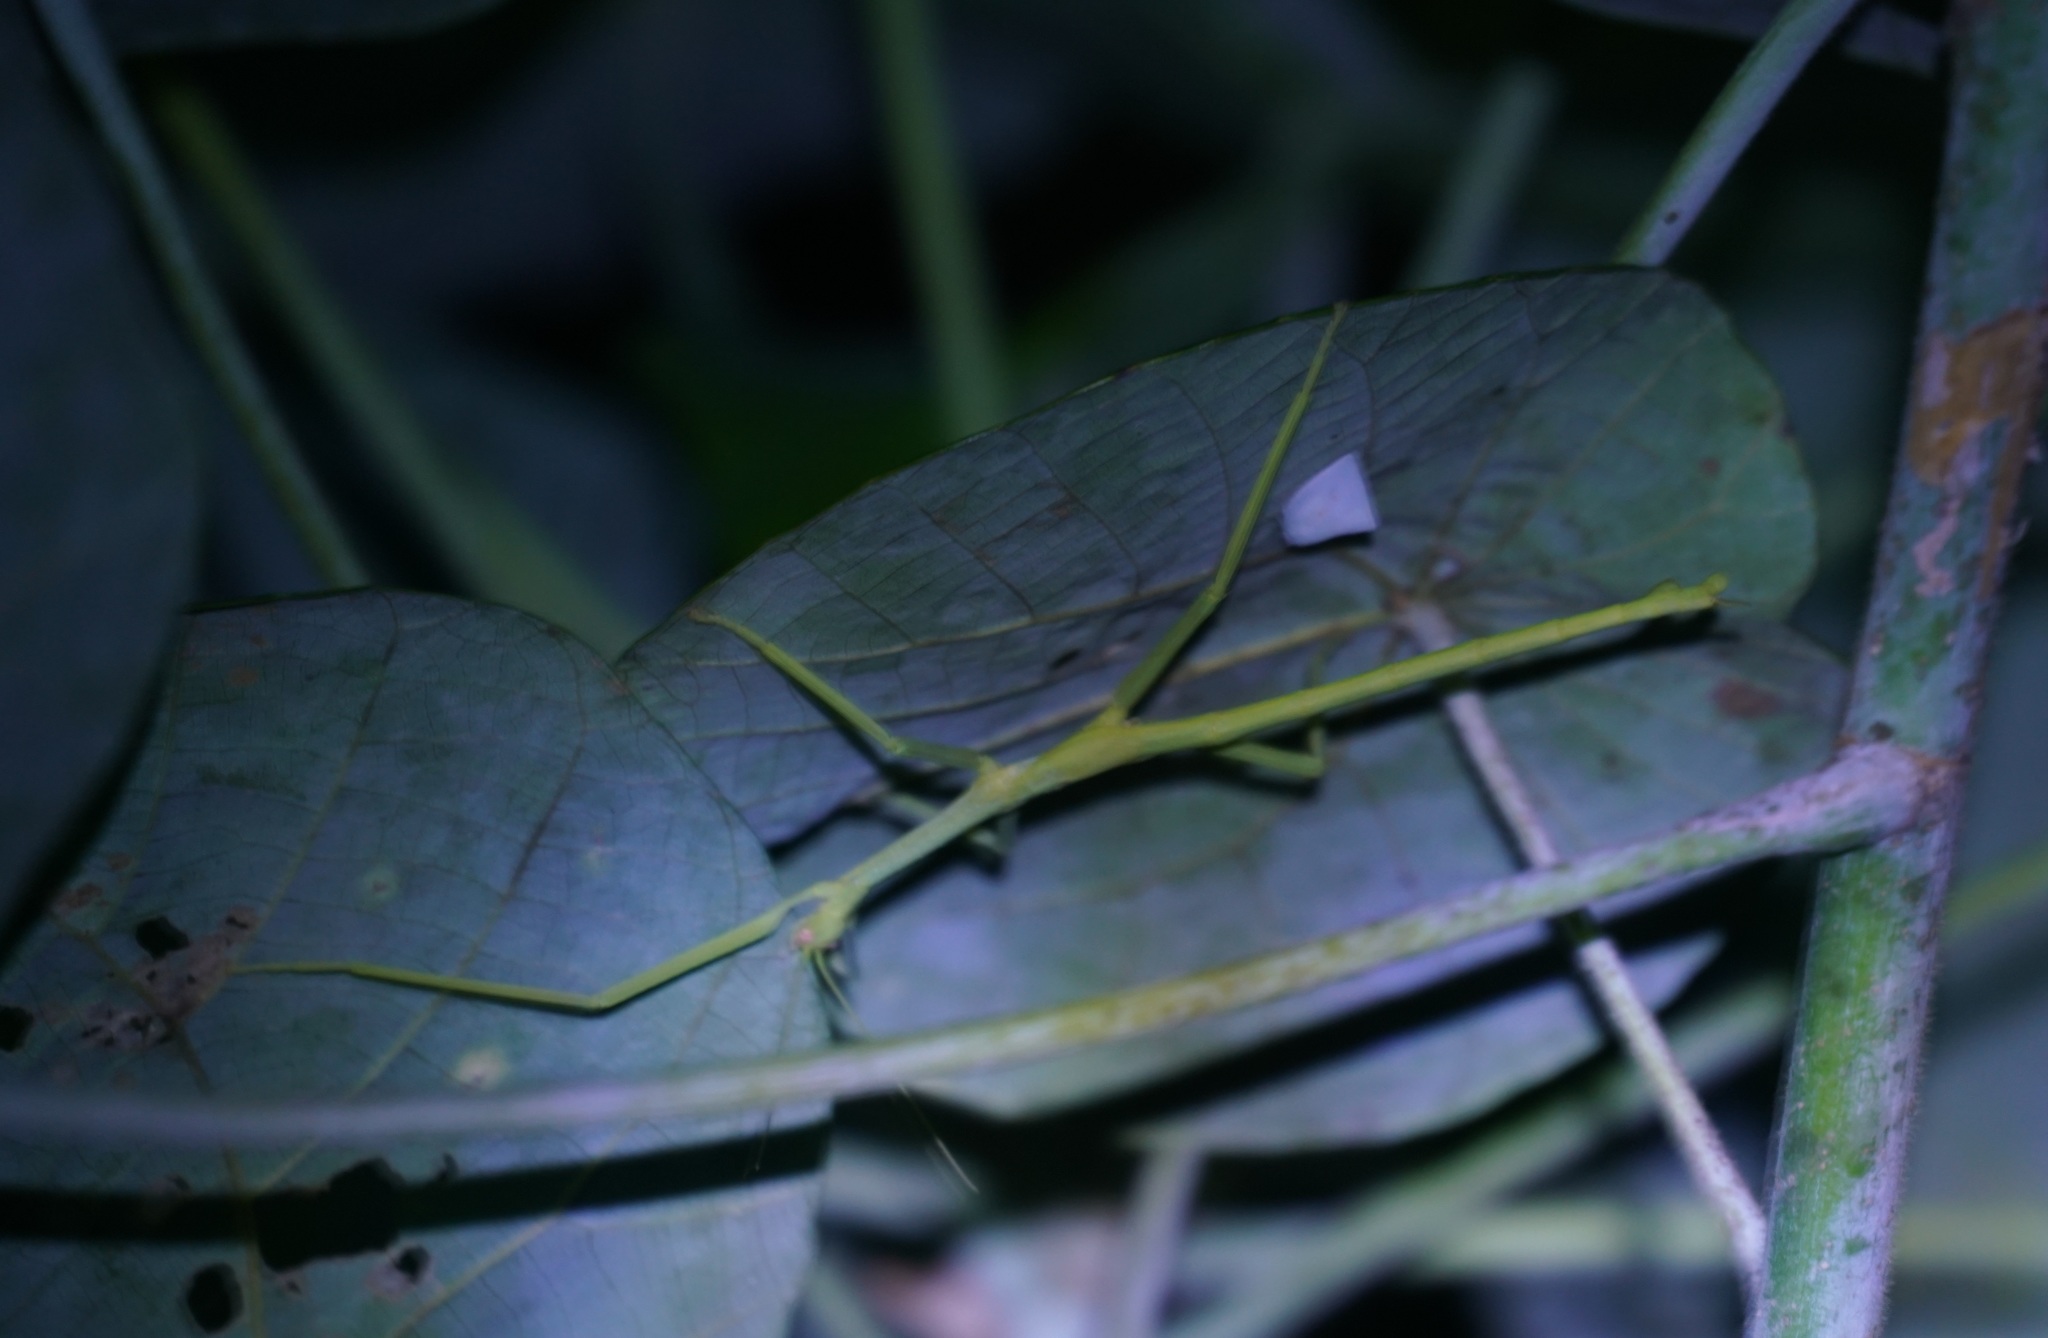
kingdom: Animalia
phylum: Arthropoda
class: Insecta
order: Phasmida
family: Phasmatidae
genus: Anchiale
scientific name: Anchiale briareus
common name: Strong stick insect
